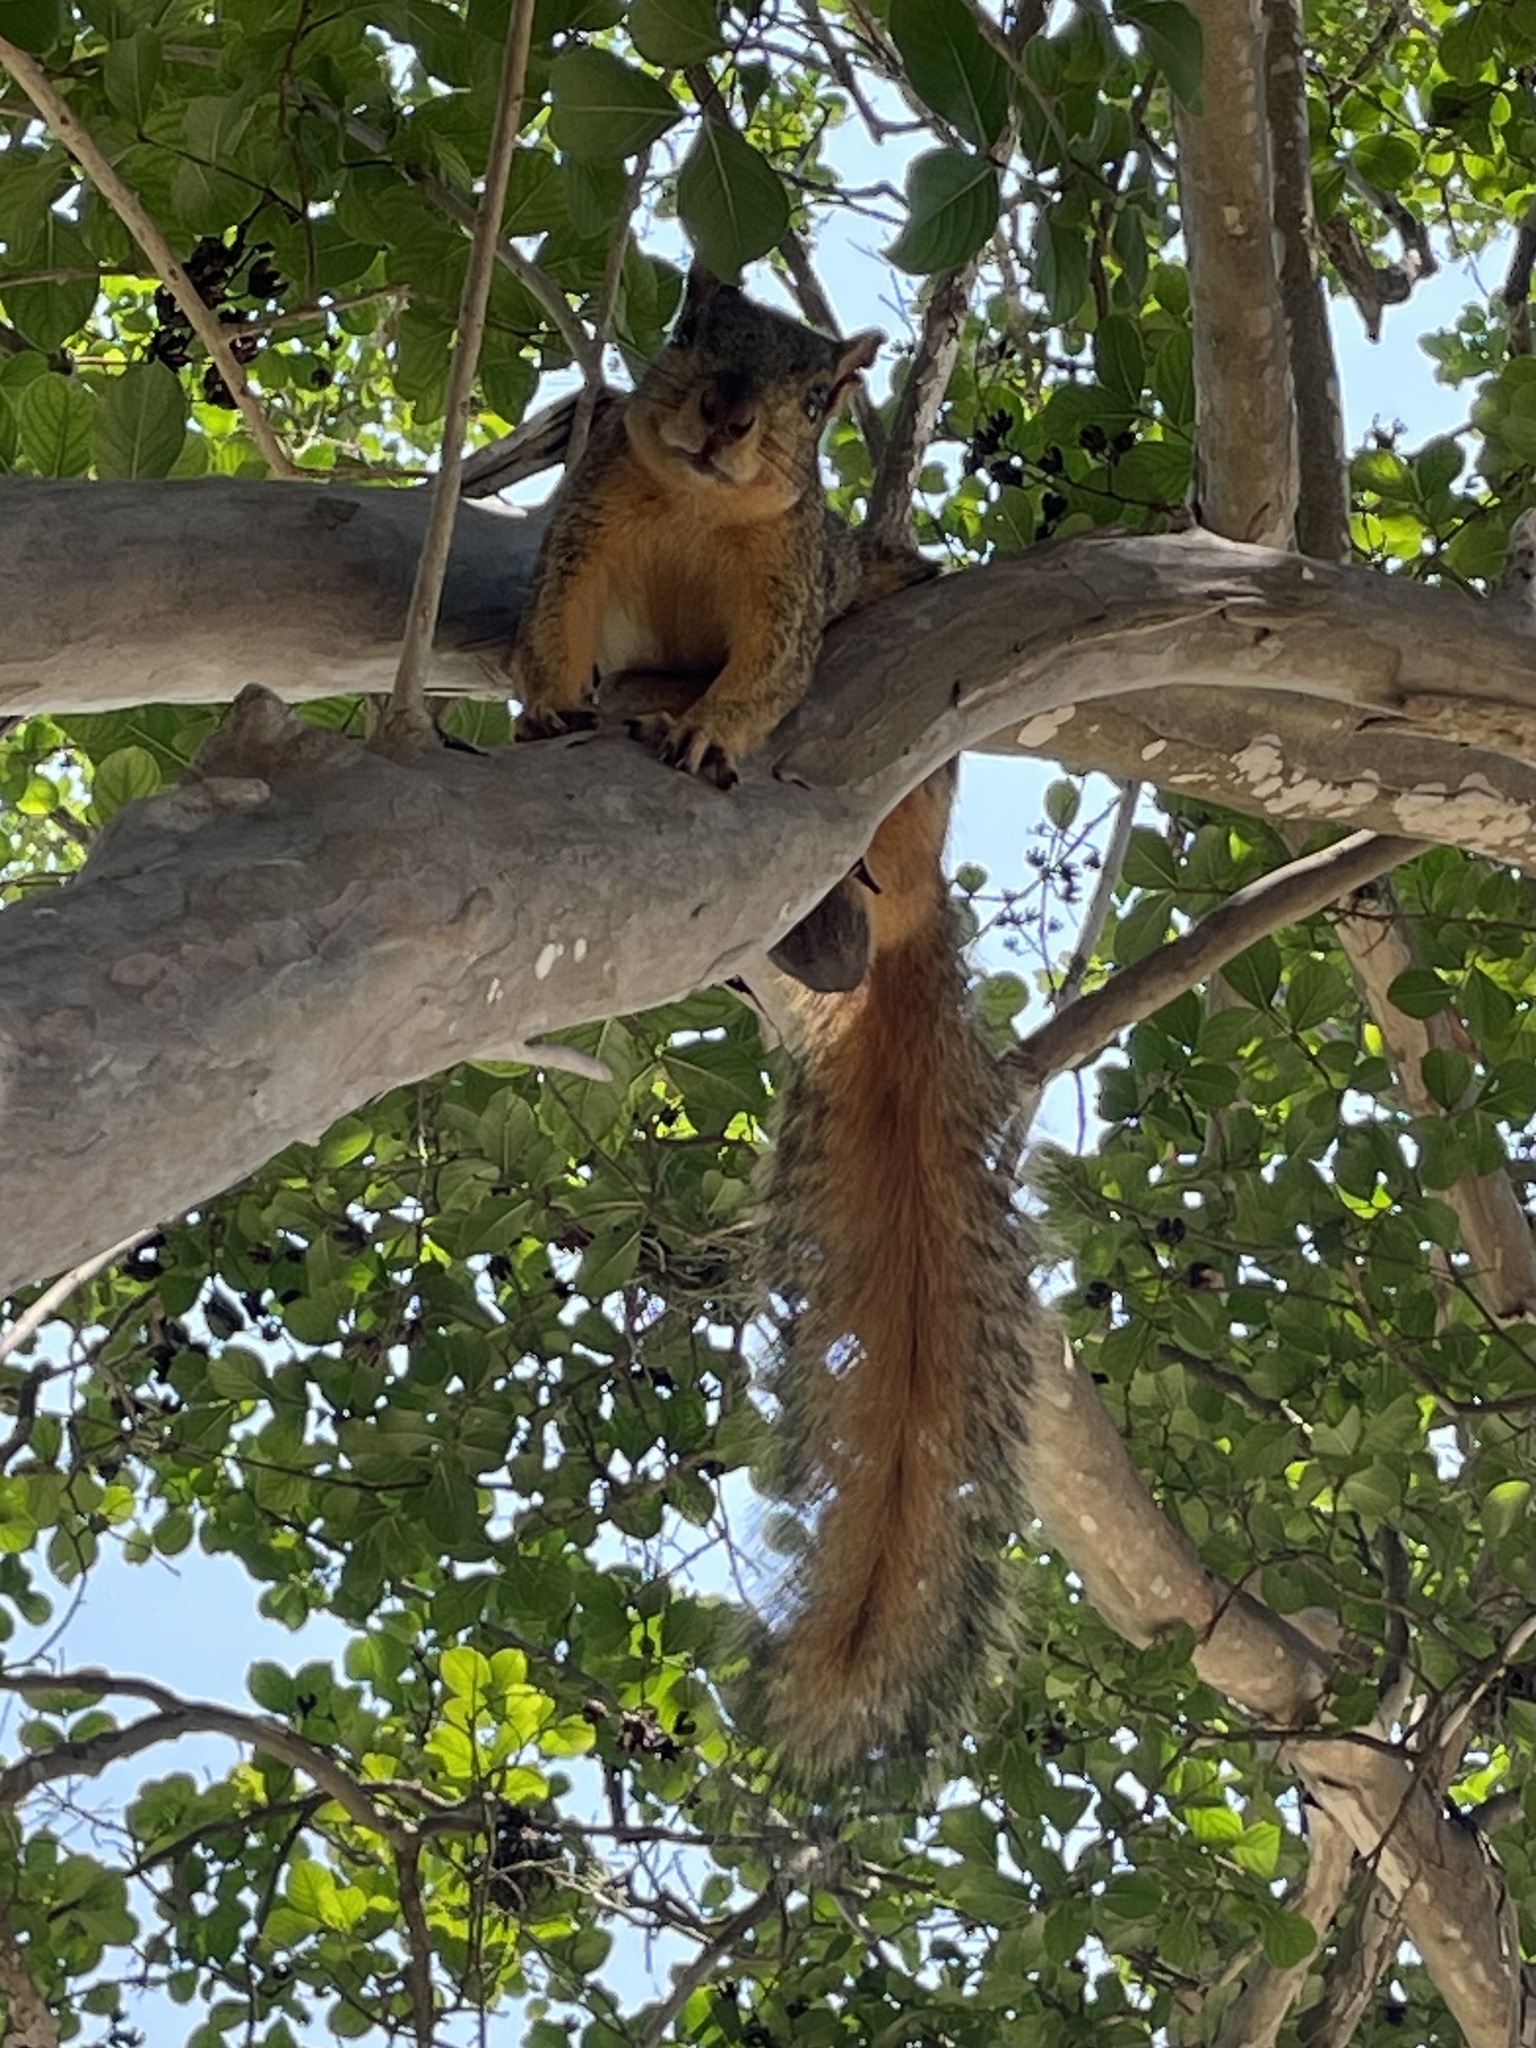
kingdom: Animalia
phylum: Chordata
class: Mammalia
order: Rodentia
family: Sciuridae
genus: Sciurus
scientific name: Sciurus niger
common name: Fox squirrel
